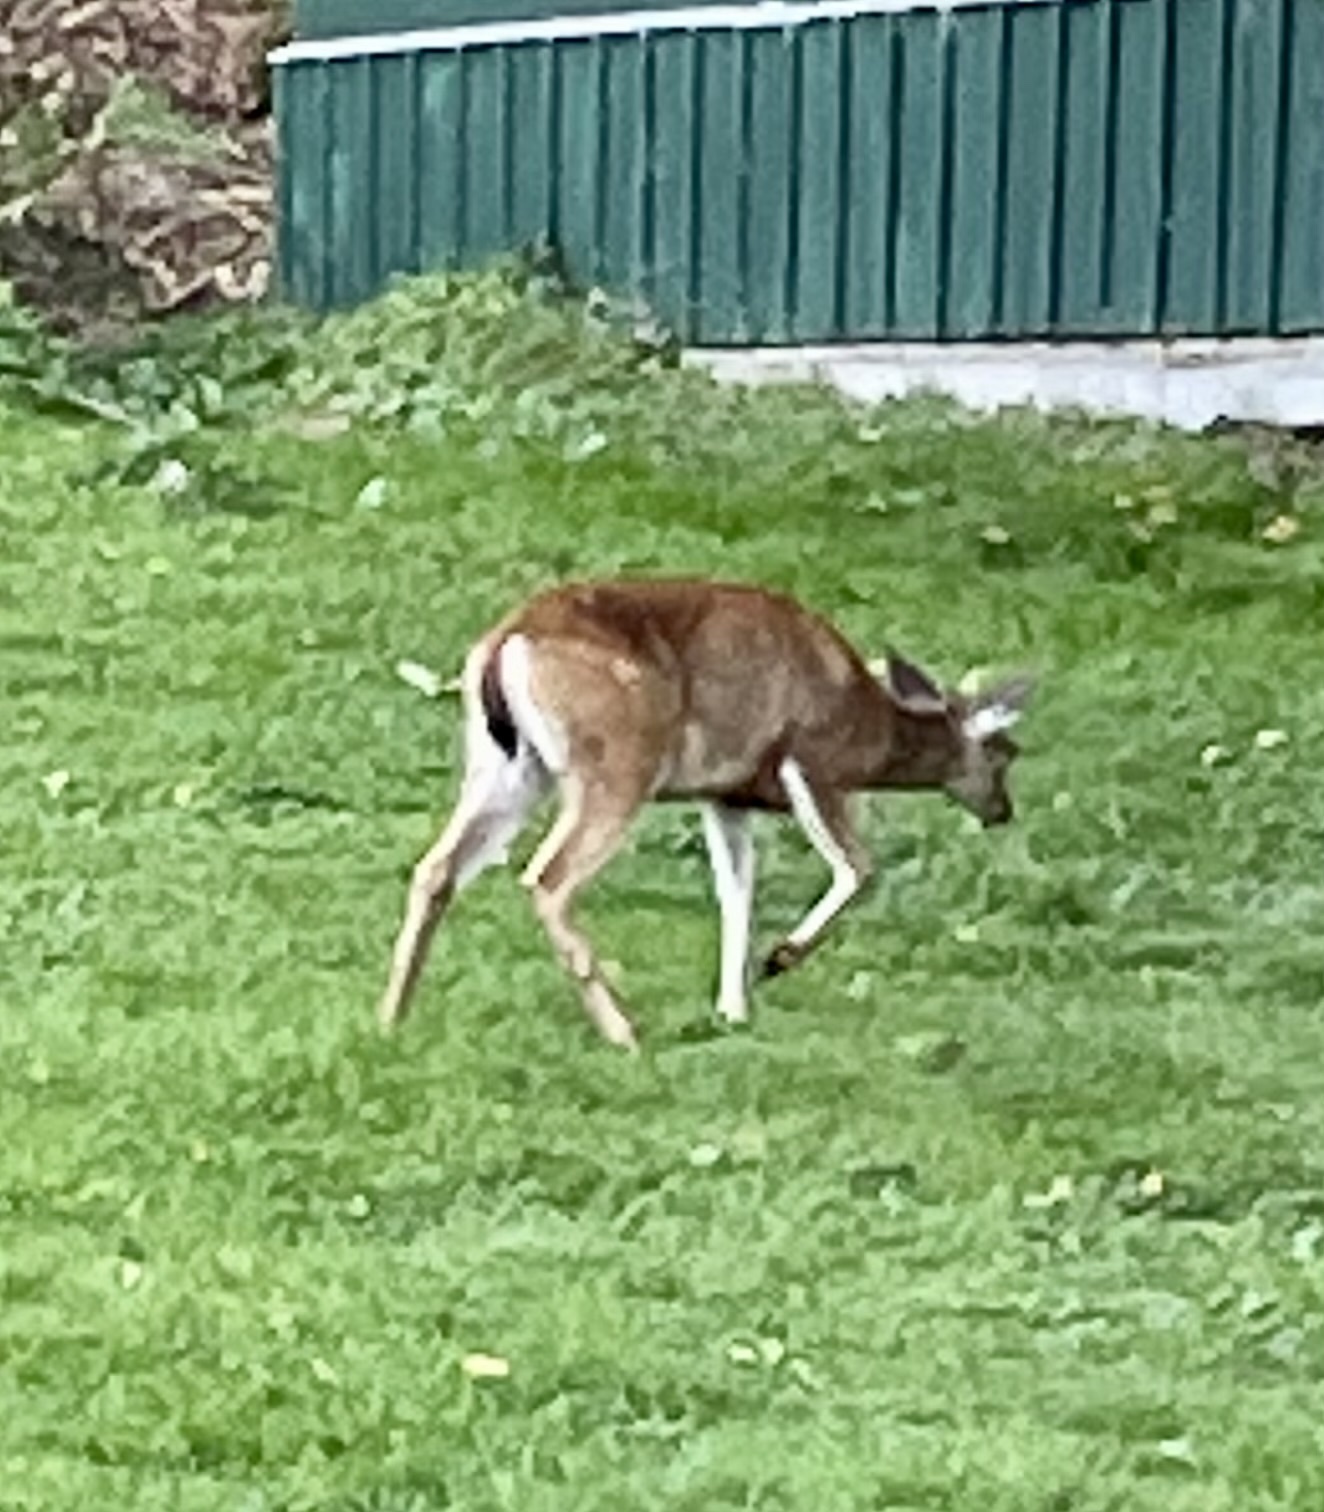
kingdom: Animalia
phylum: Chordata
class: Mammalia
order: Artiodactyla
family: Cervidae
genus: Odocoileus
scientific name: Odocoileus hemionus
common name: Mule deer
